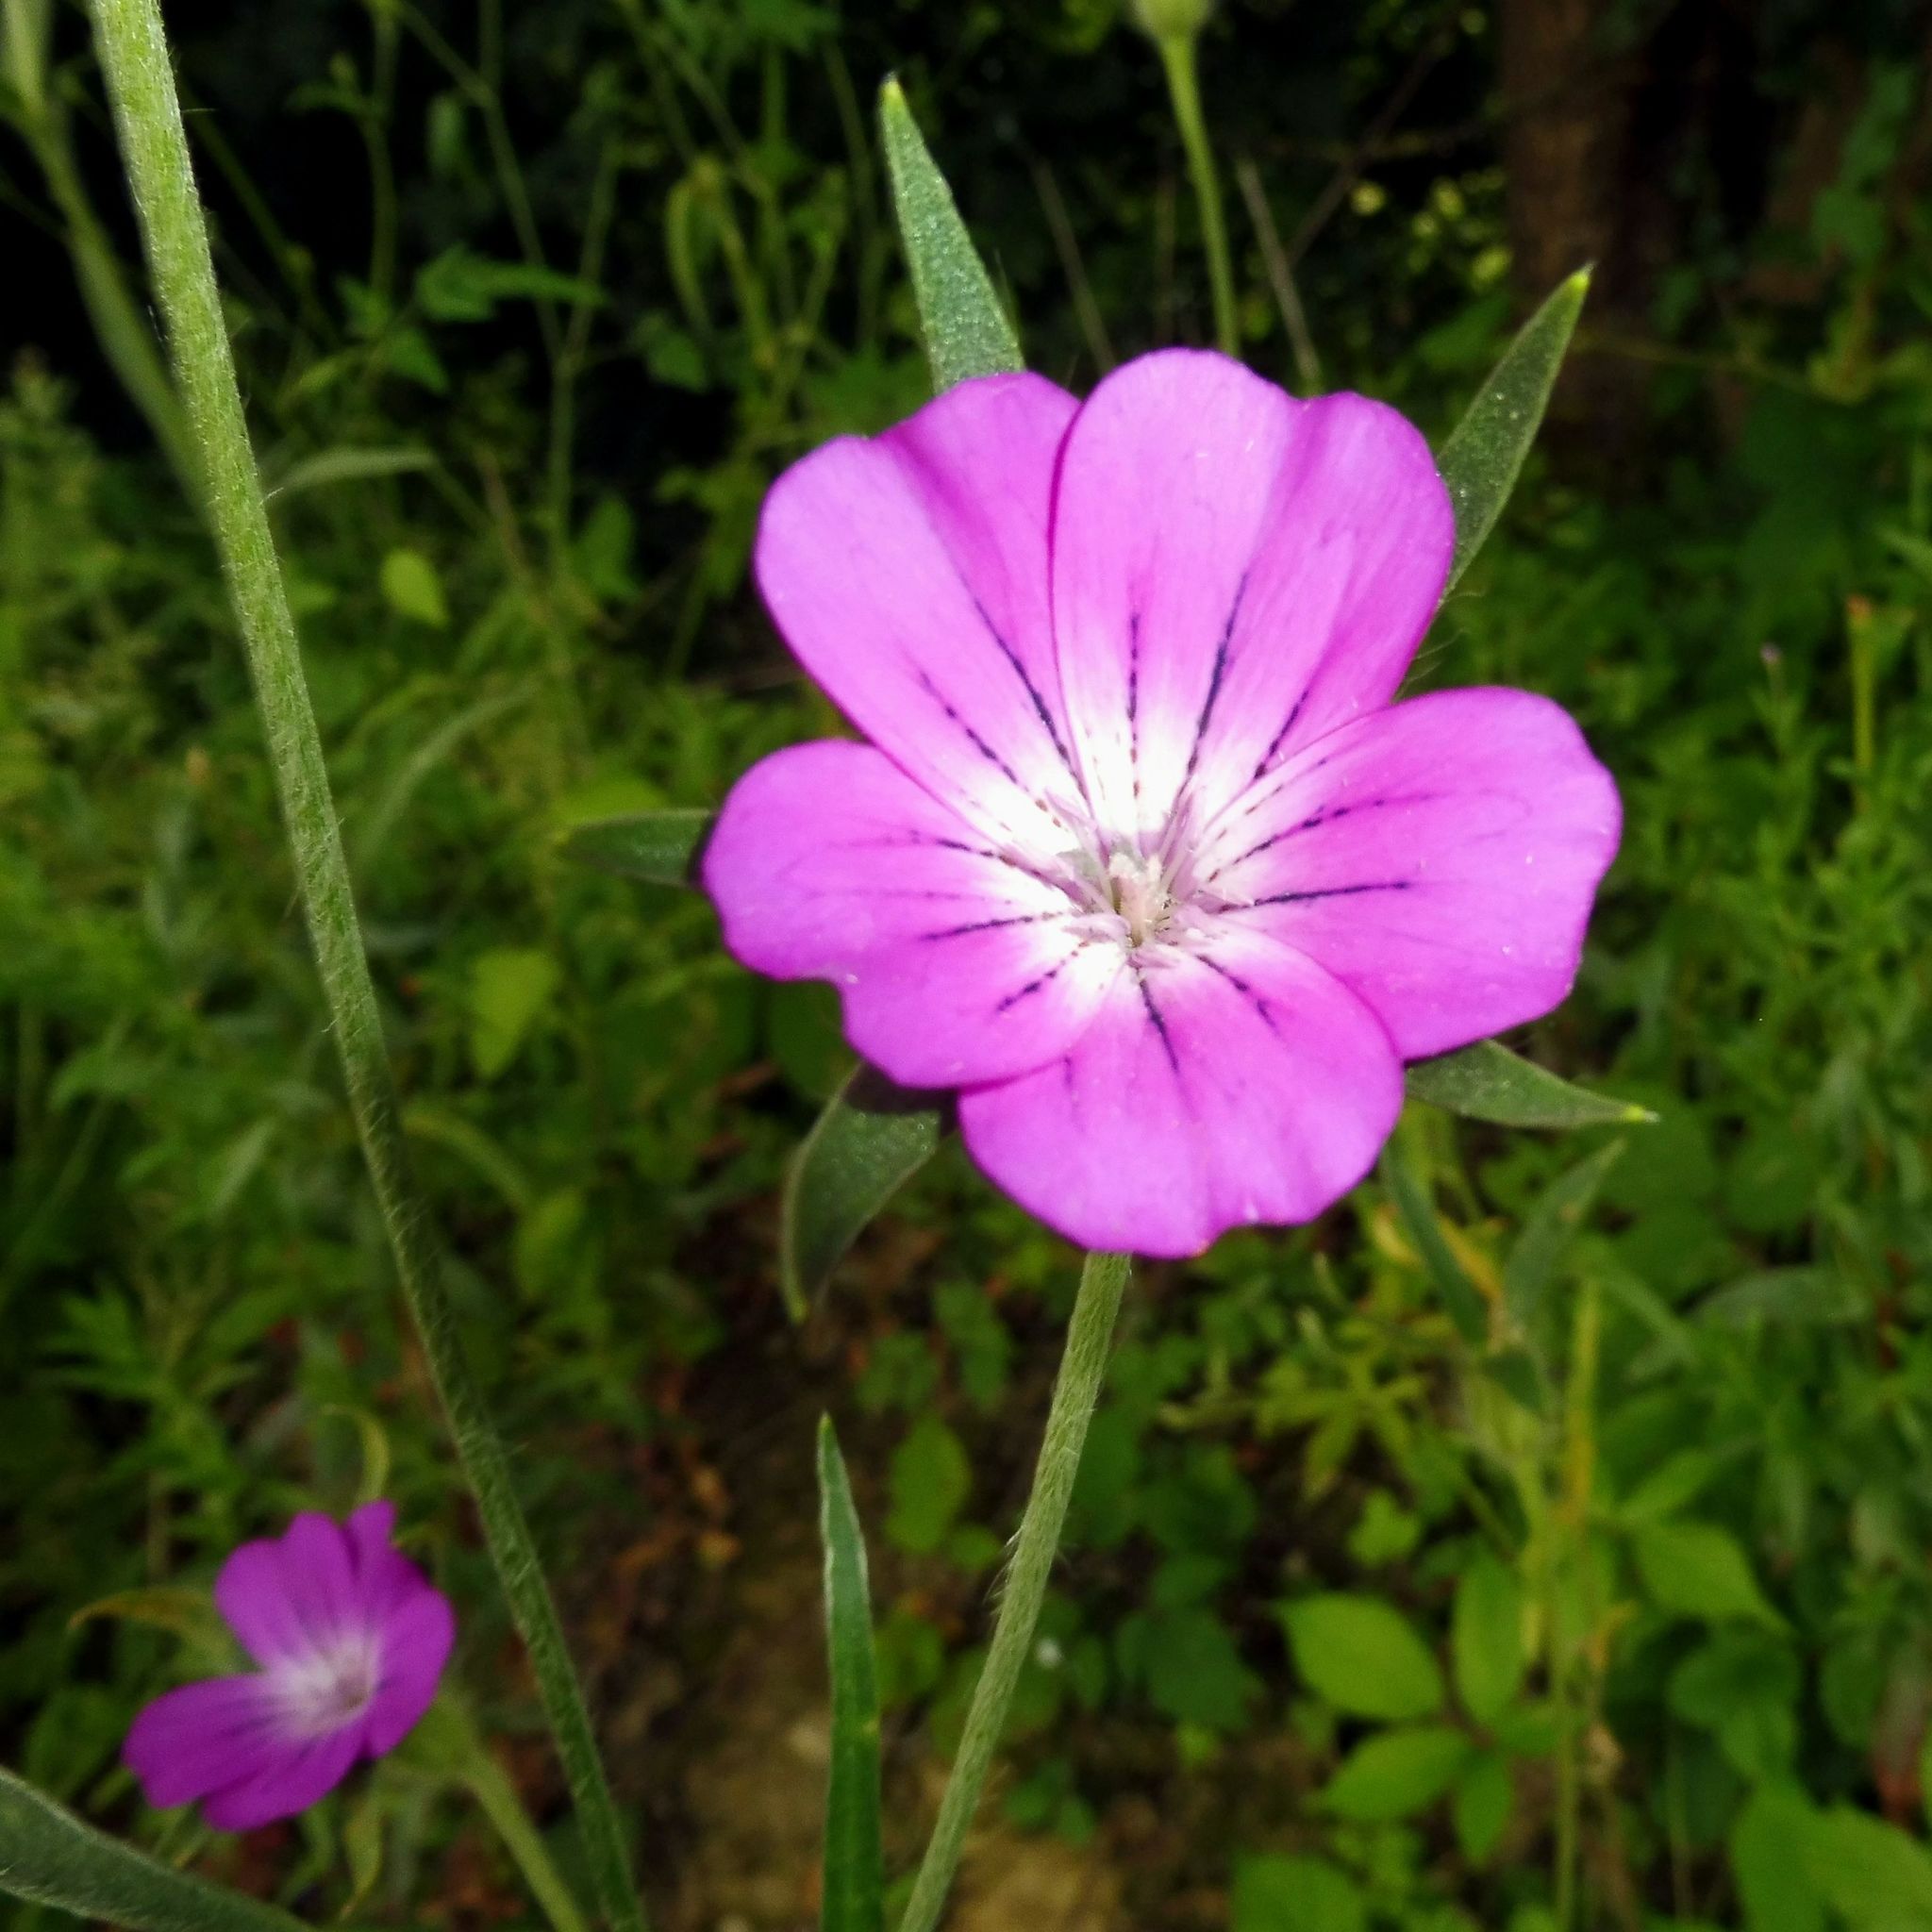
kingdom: Plantae
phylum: Tracheophyta
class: Magnoliopsida
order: Caryophyllales
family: Caryophyllaceae
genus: Agrostemma
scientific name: Agrostemma githago
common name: Common corncockle
